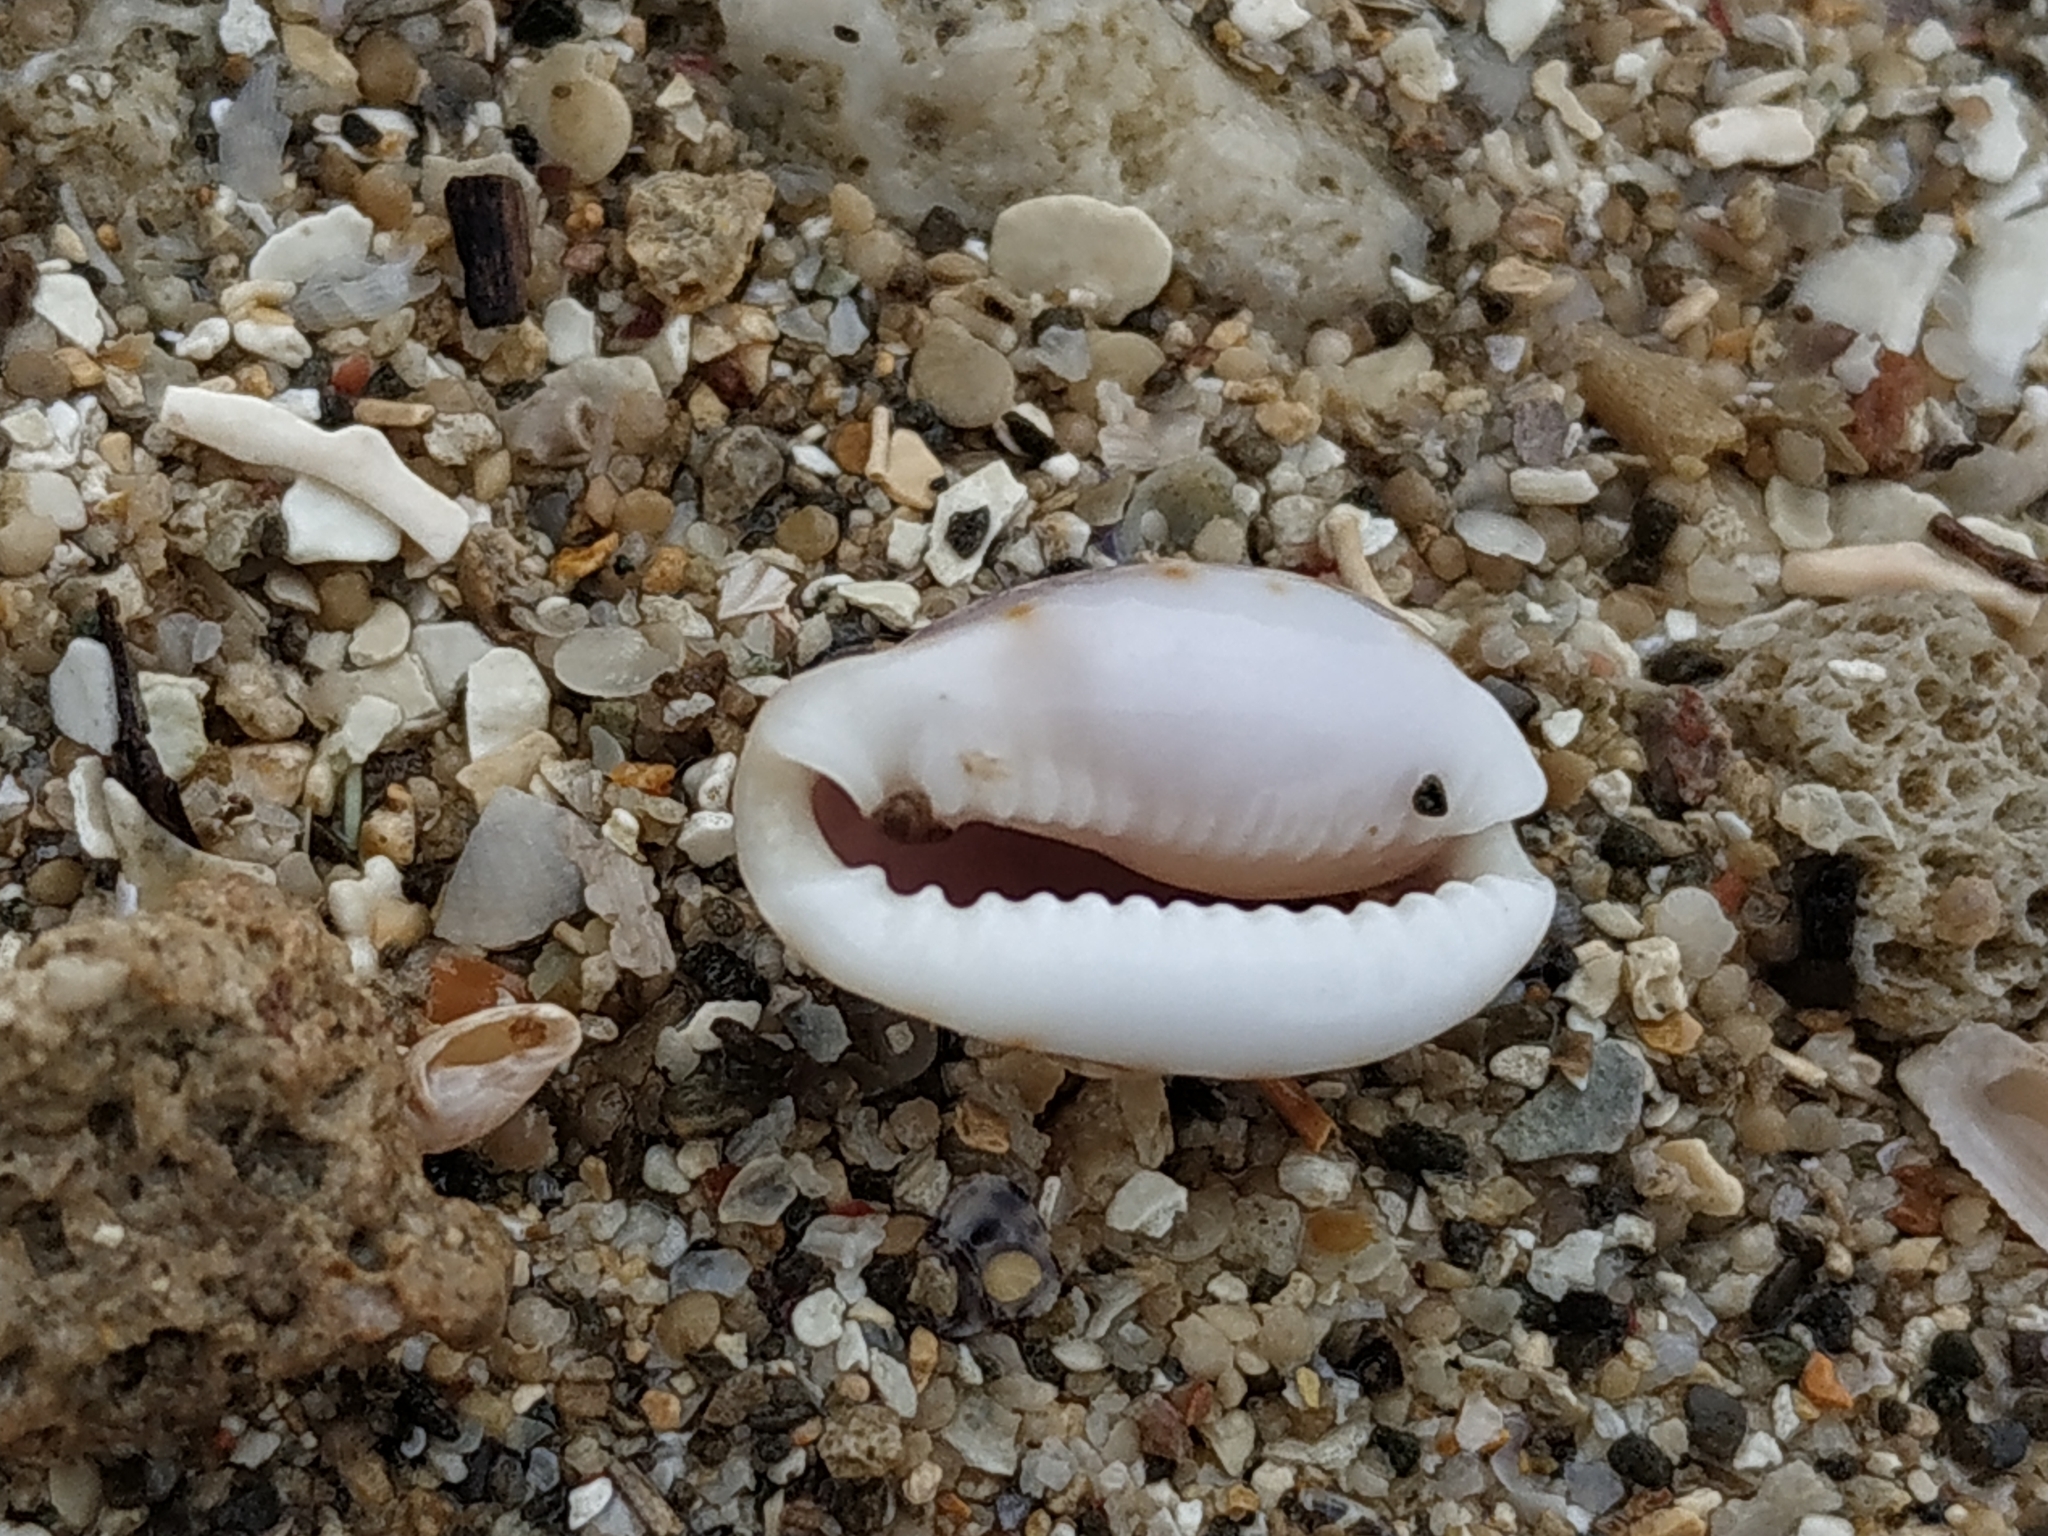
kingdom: Animalia
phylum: Mollusca
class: Gastropoda
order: Littorinimorpha
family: Cypraeidae
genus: Naria
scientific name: Naria labrolineata
